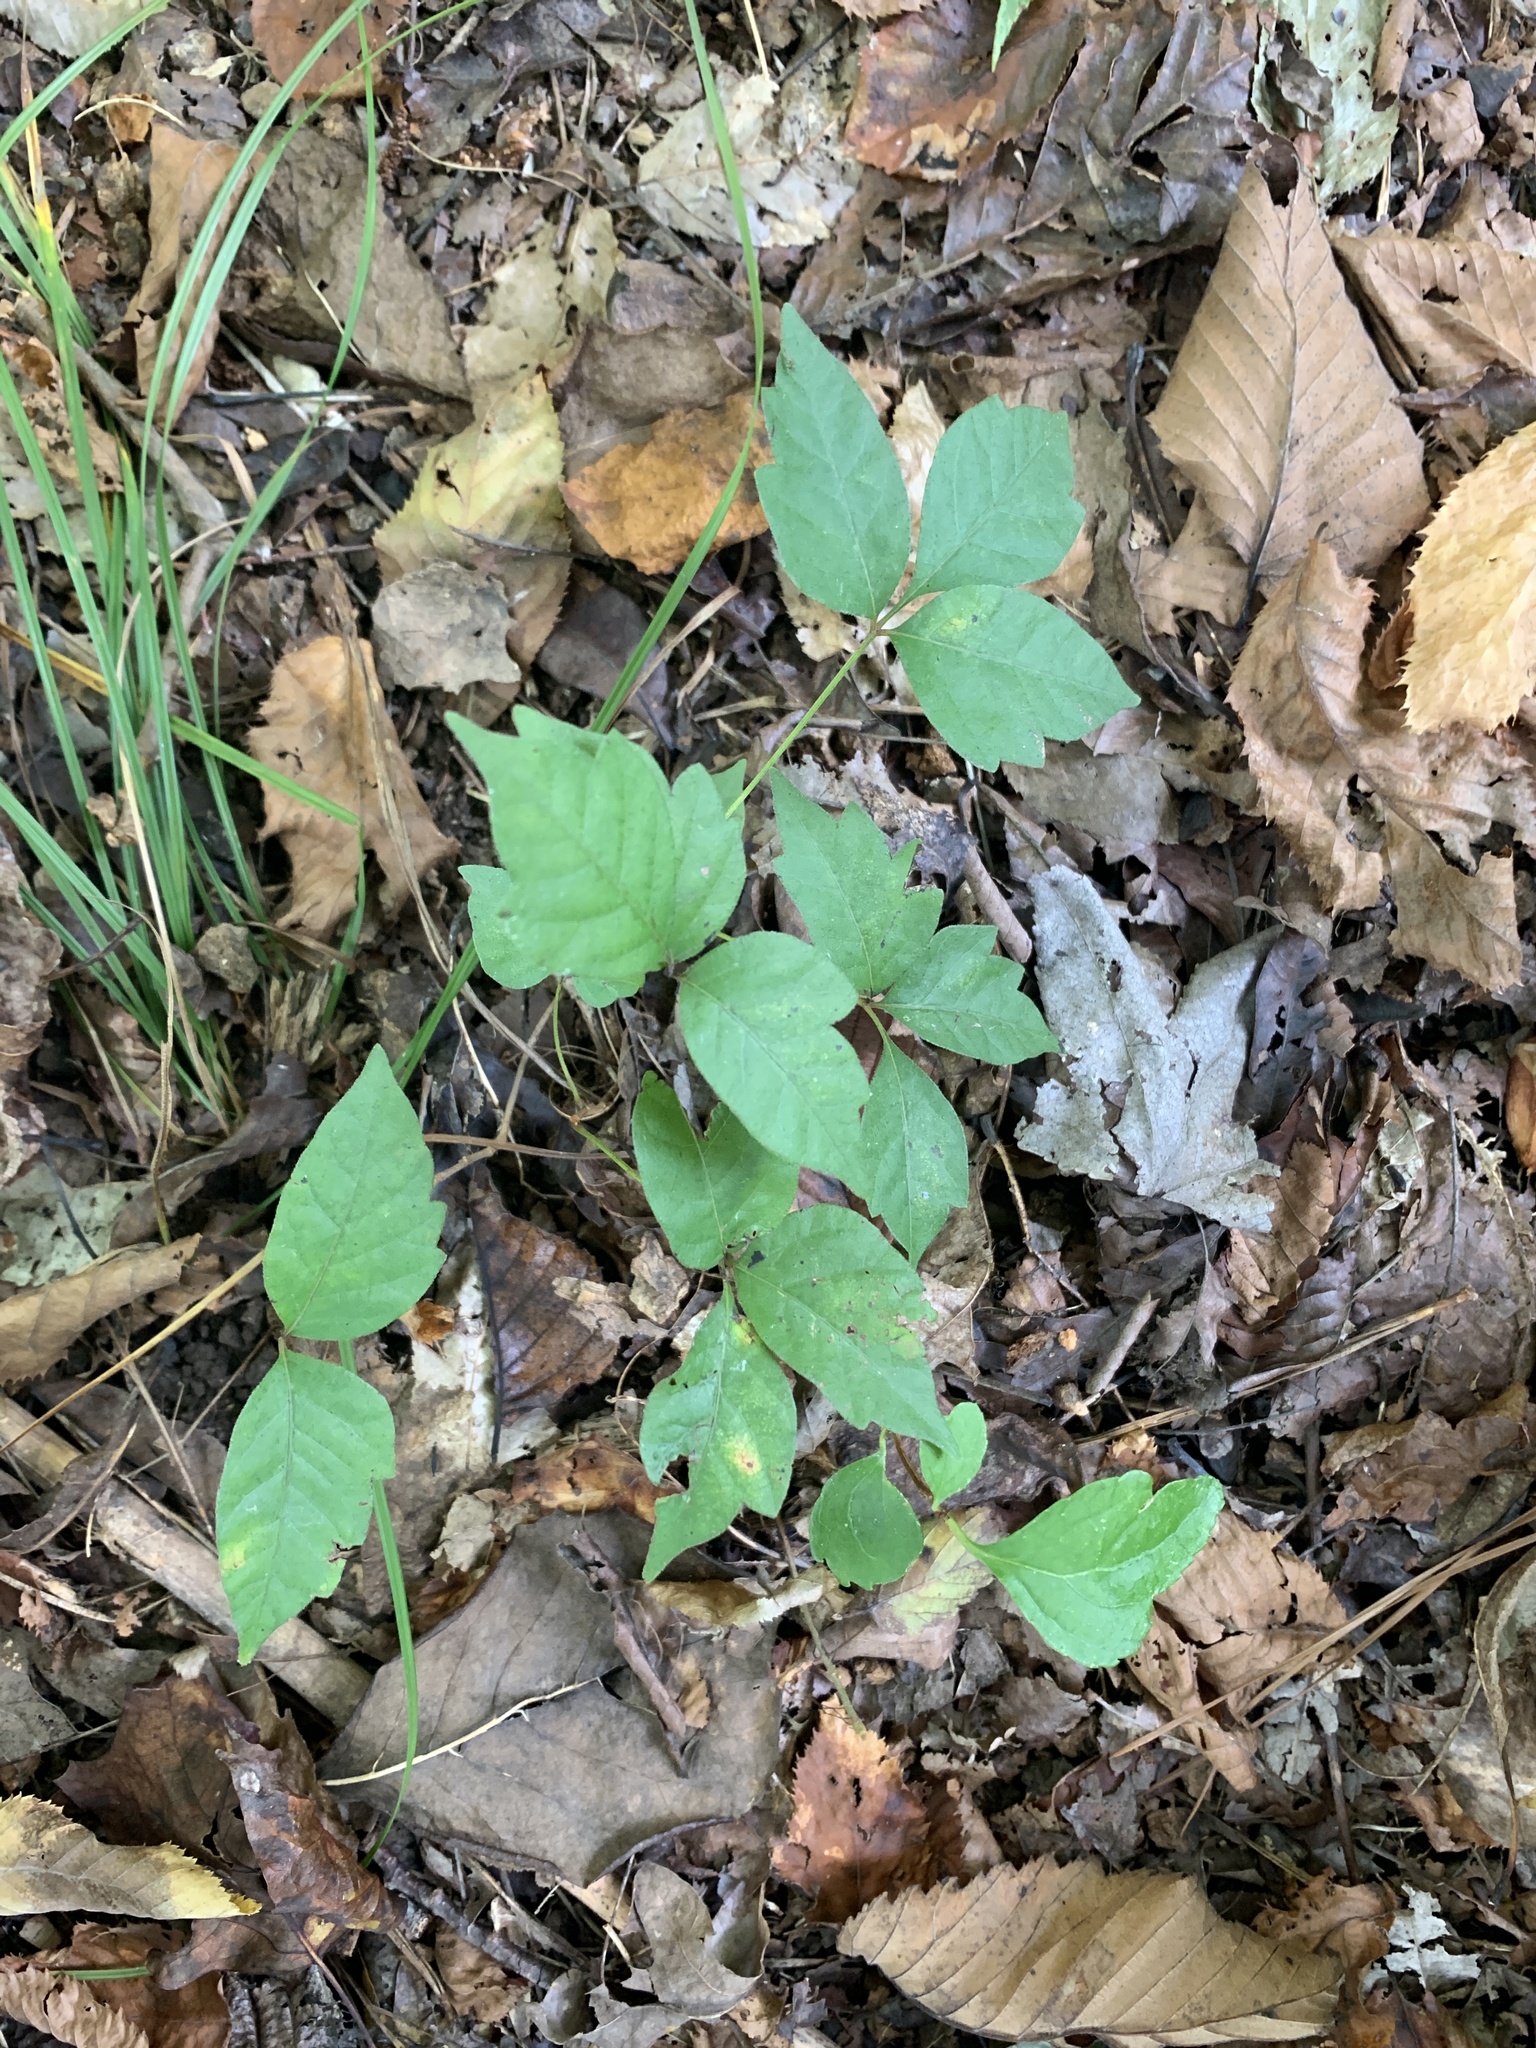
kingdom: Plantae
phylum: Tracheophyta
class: Magnoliopsida
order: Sapindales
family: Anacardiaceae
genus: Toxicodendron
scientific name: Toxicodendron radicans
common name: Poison ivy
